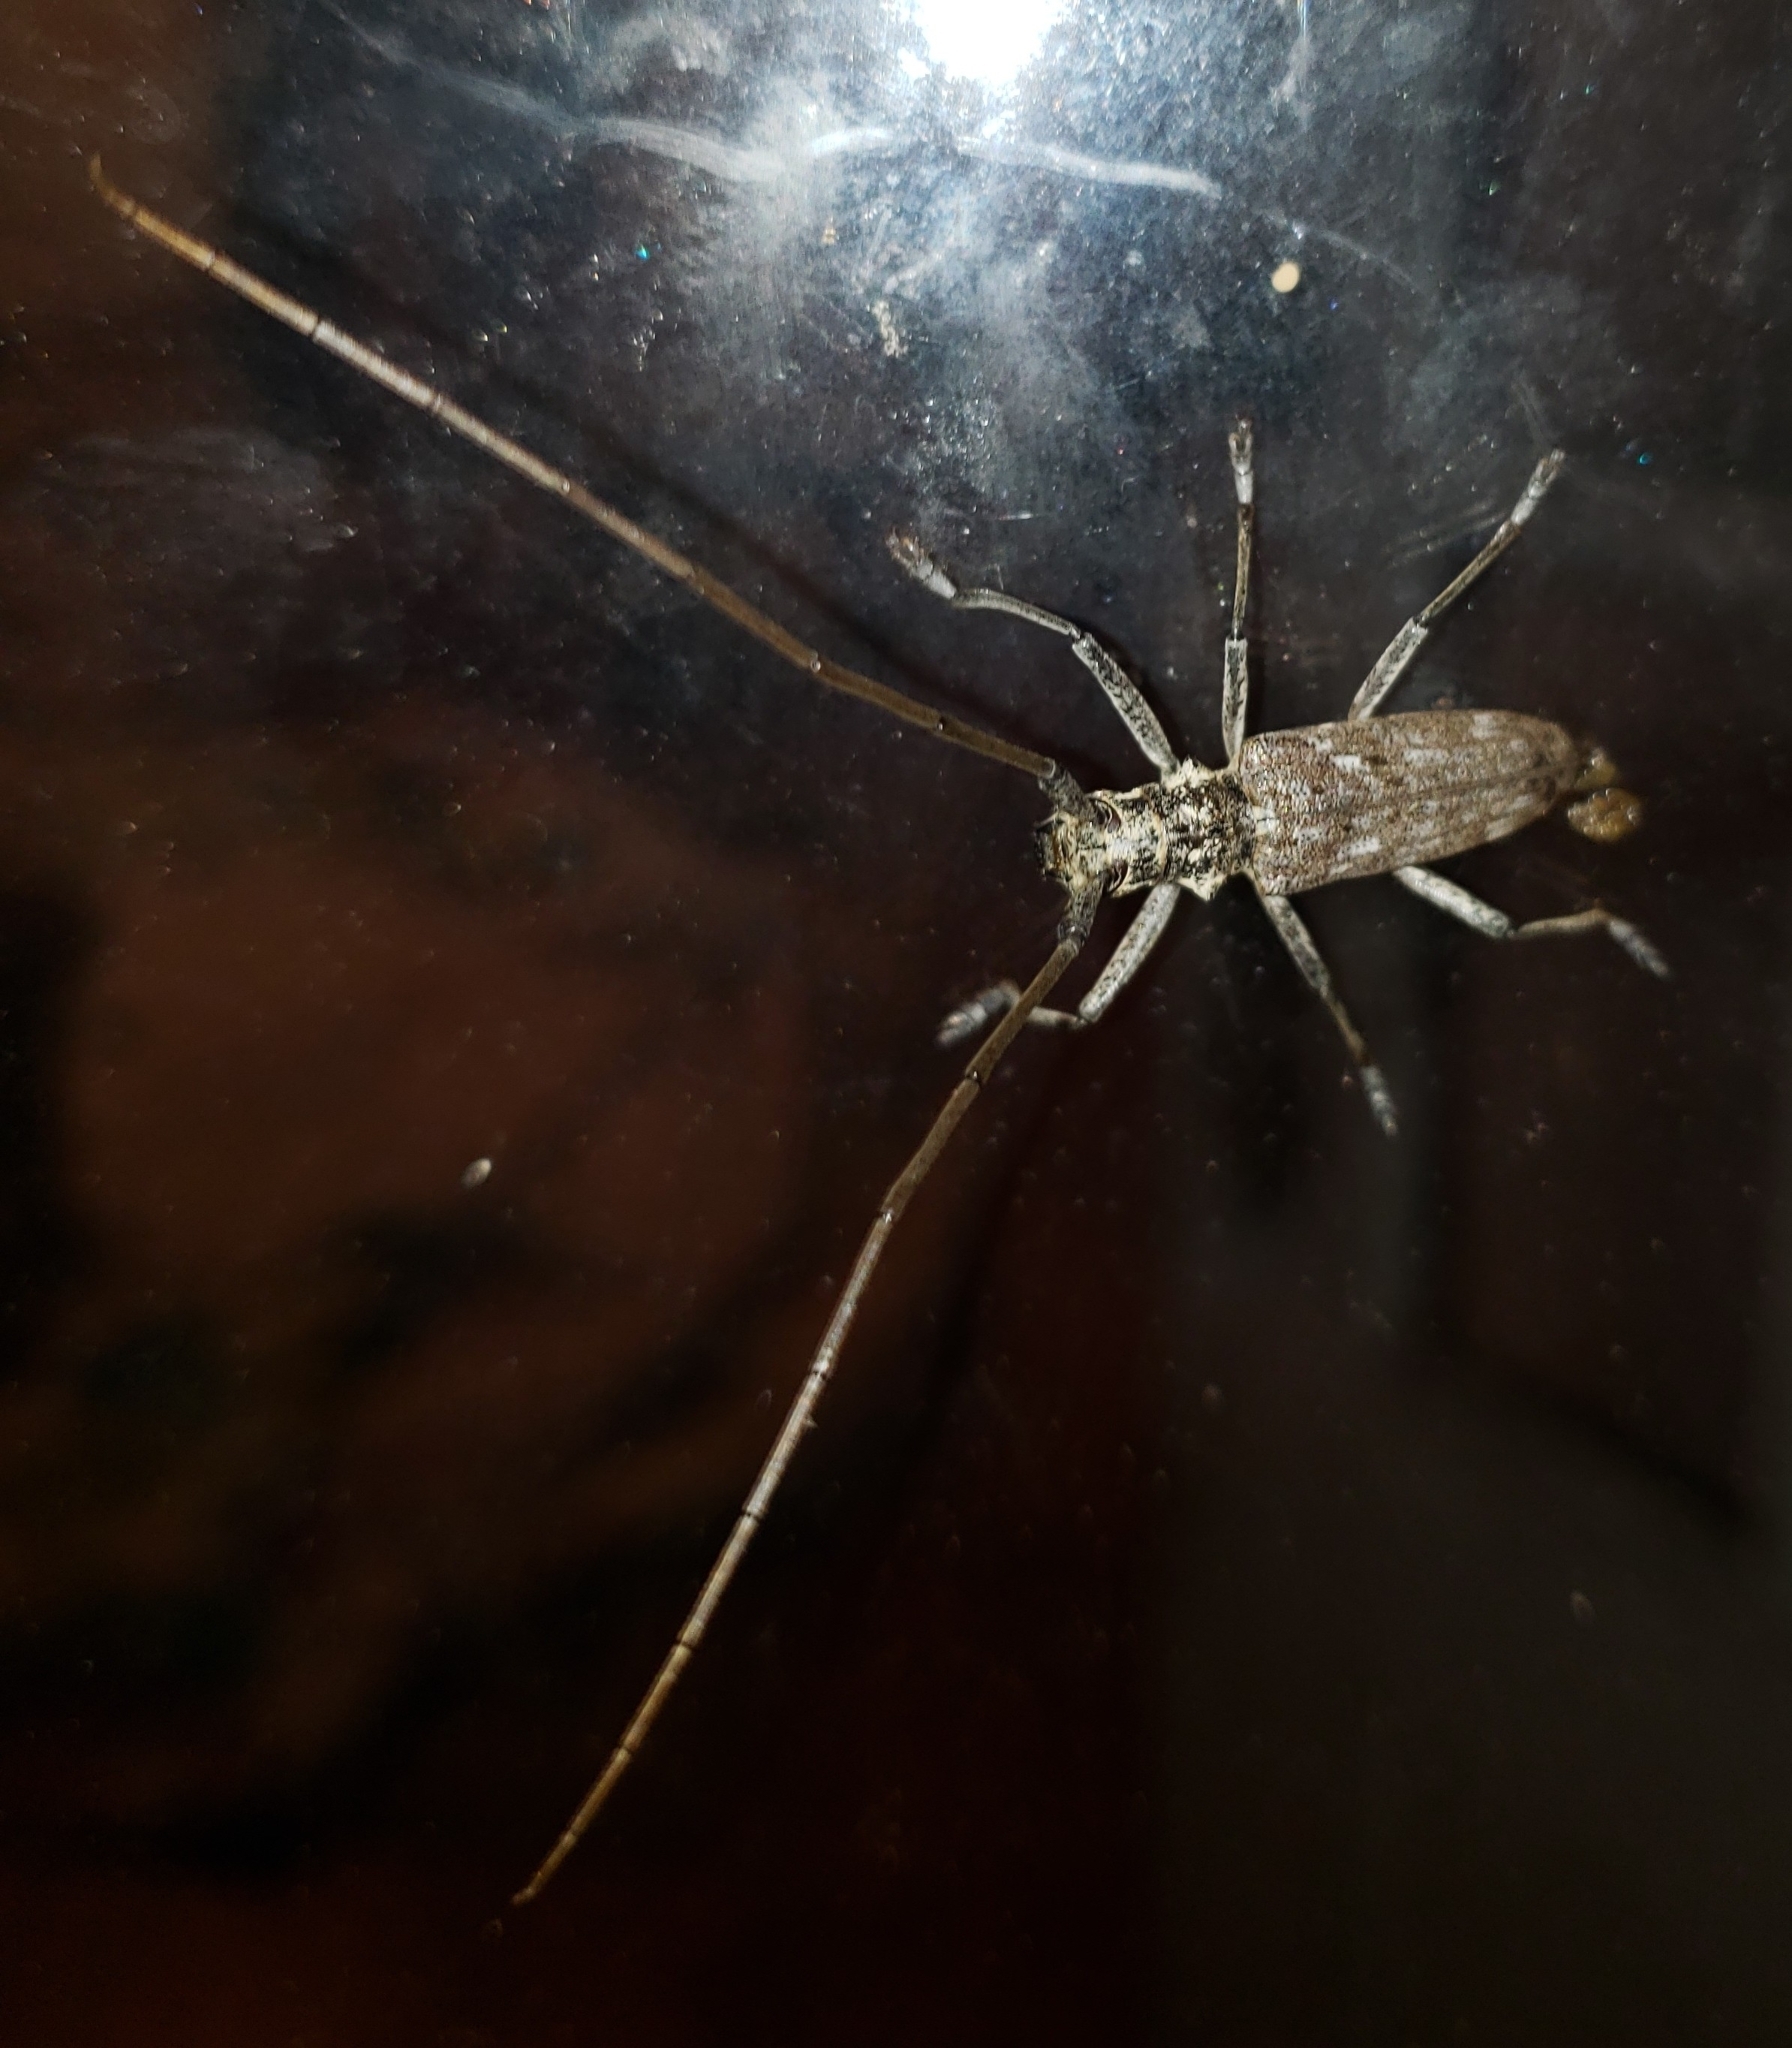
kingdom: Animalia
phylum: Arthropoda
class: Insecta
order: Coleoptera
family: Cerambycidae
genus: Monochamus
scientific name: Monochamus notatus
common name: Northeastern pine sawyer beetle
